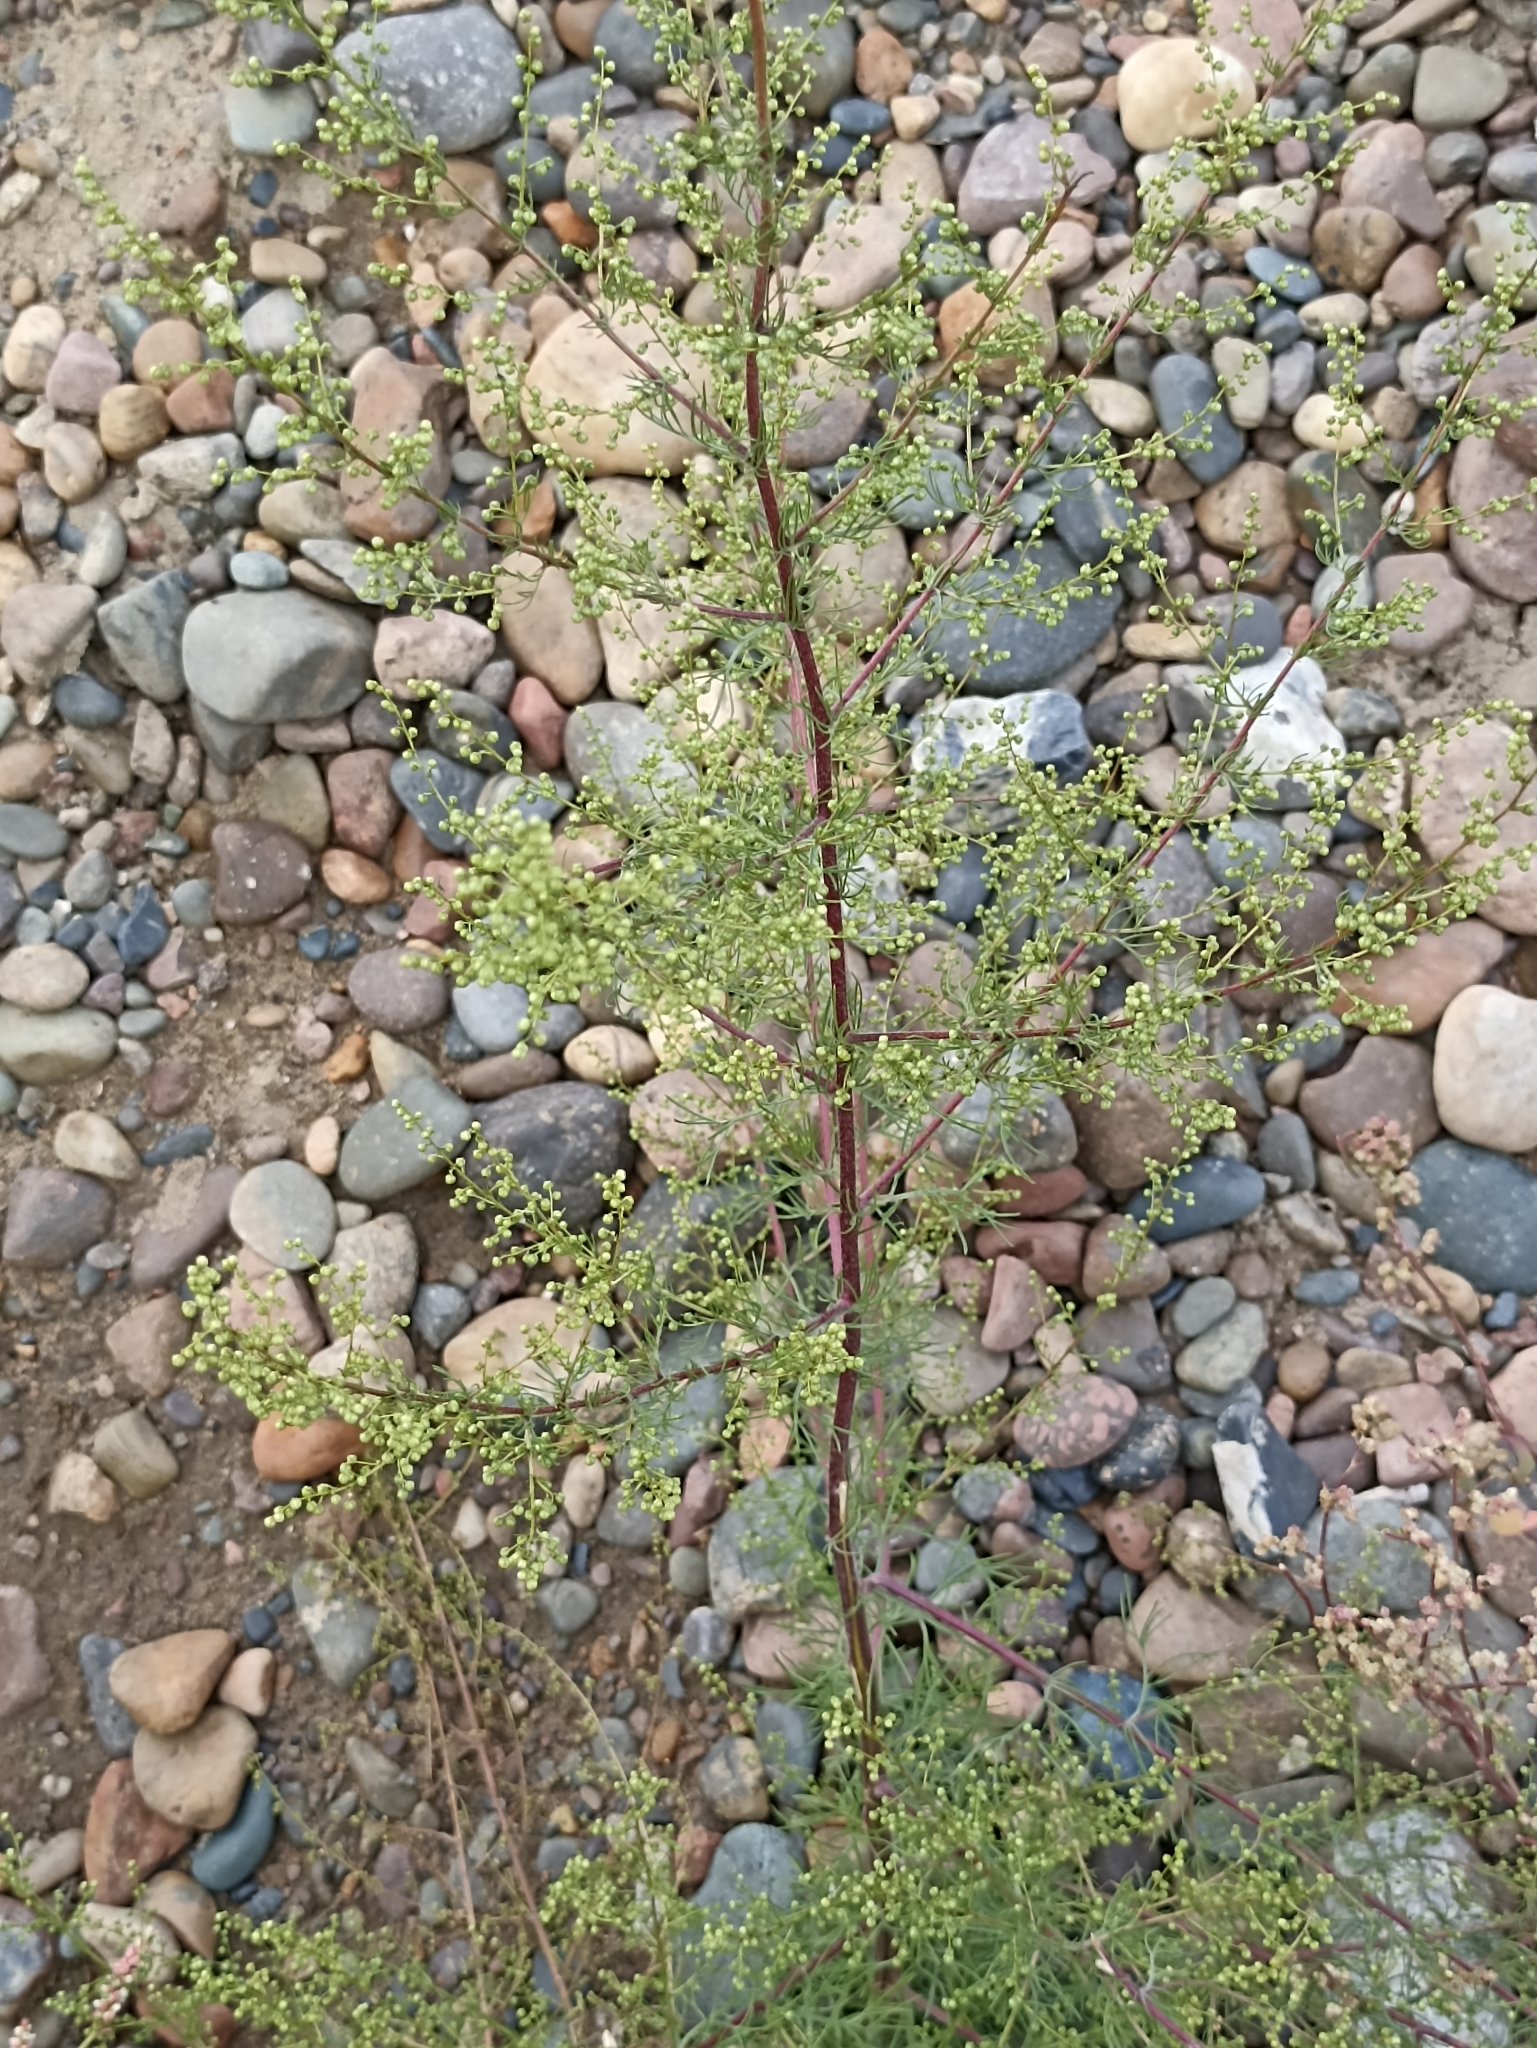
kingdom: Plantae
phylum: Tracheophyta
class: Magnoliopsida
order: Asterales
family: Asteraceae
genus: Artemisia
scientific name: Artemisia scoparia
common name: Redstem wormwood
